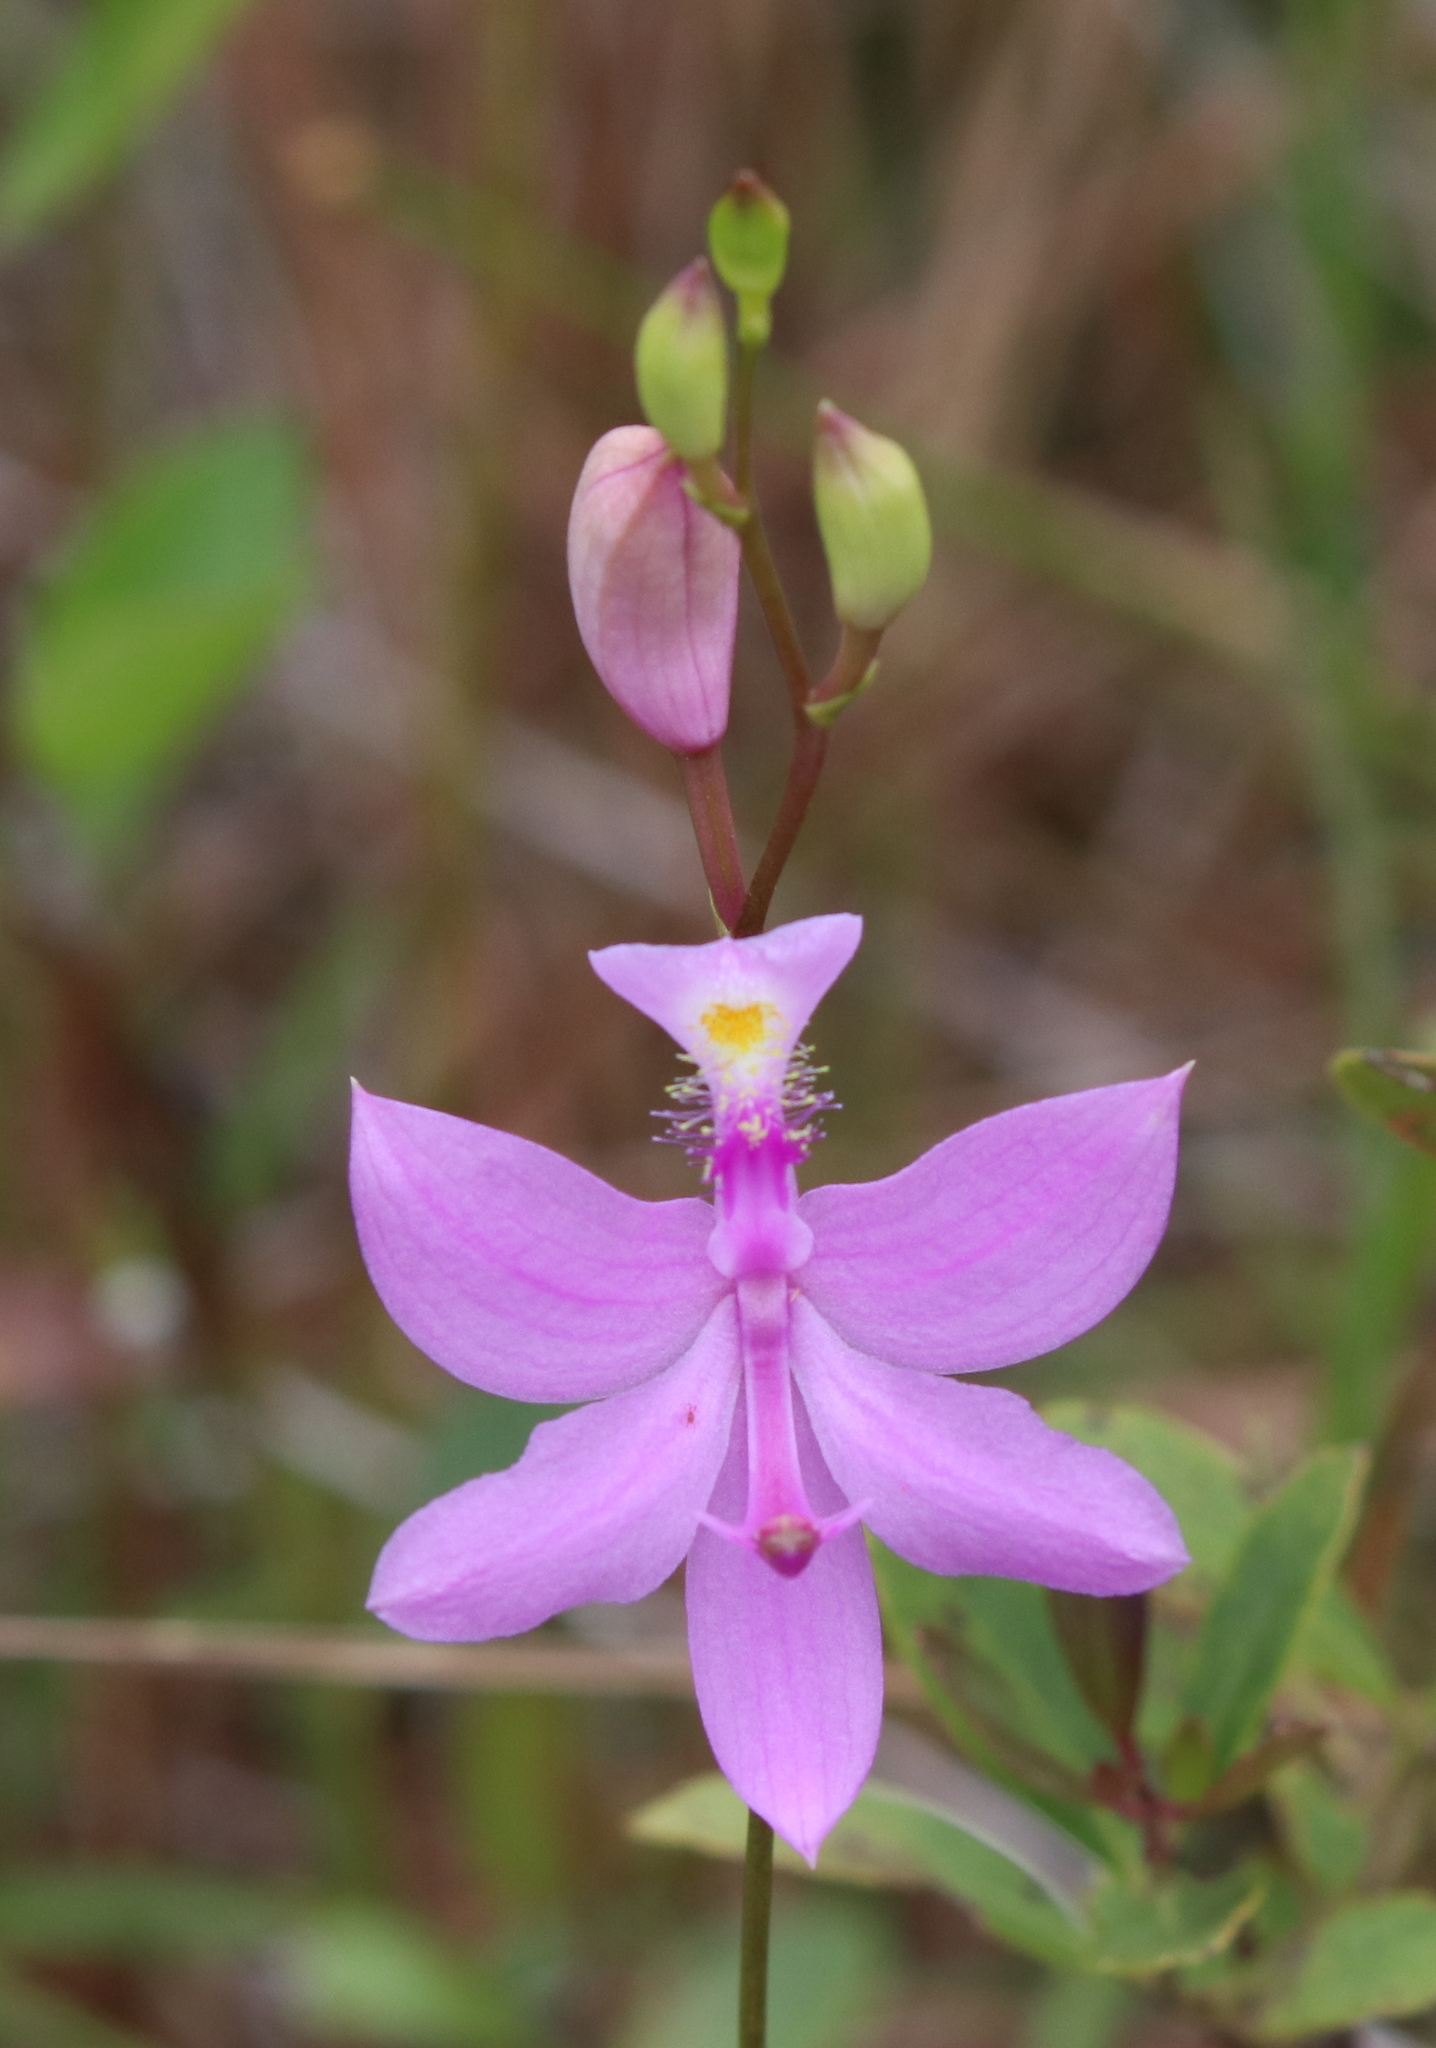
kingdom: Plantae
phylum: Tracheophyta
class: Liliopsida
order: Asparagales
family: Orchidaceae
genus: Calopogon
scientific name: Calopogon tuberosus
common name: Grass-pink
